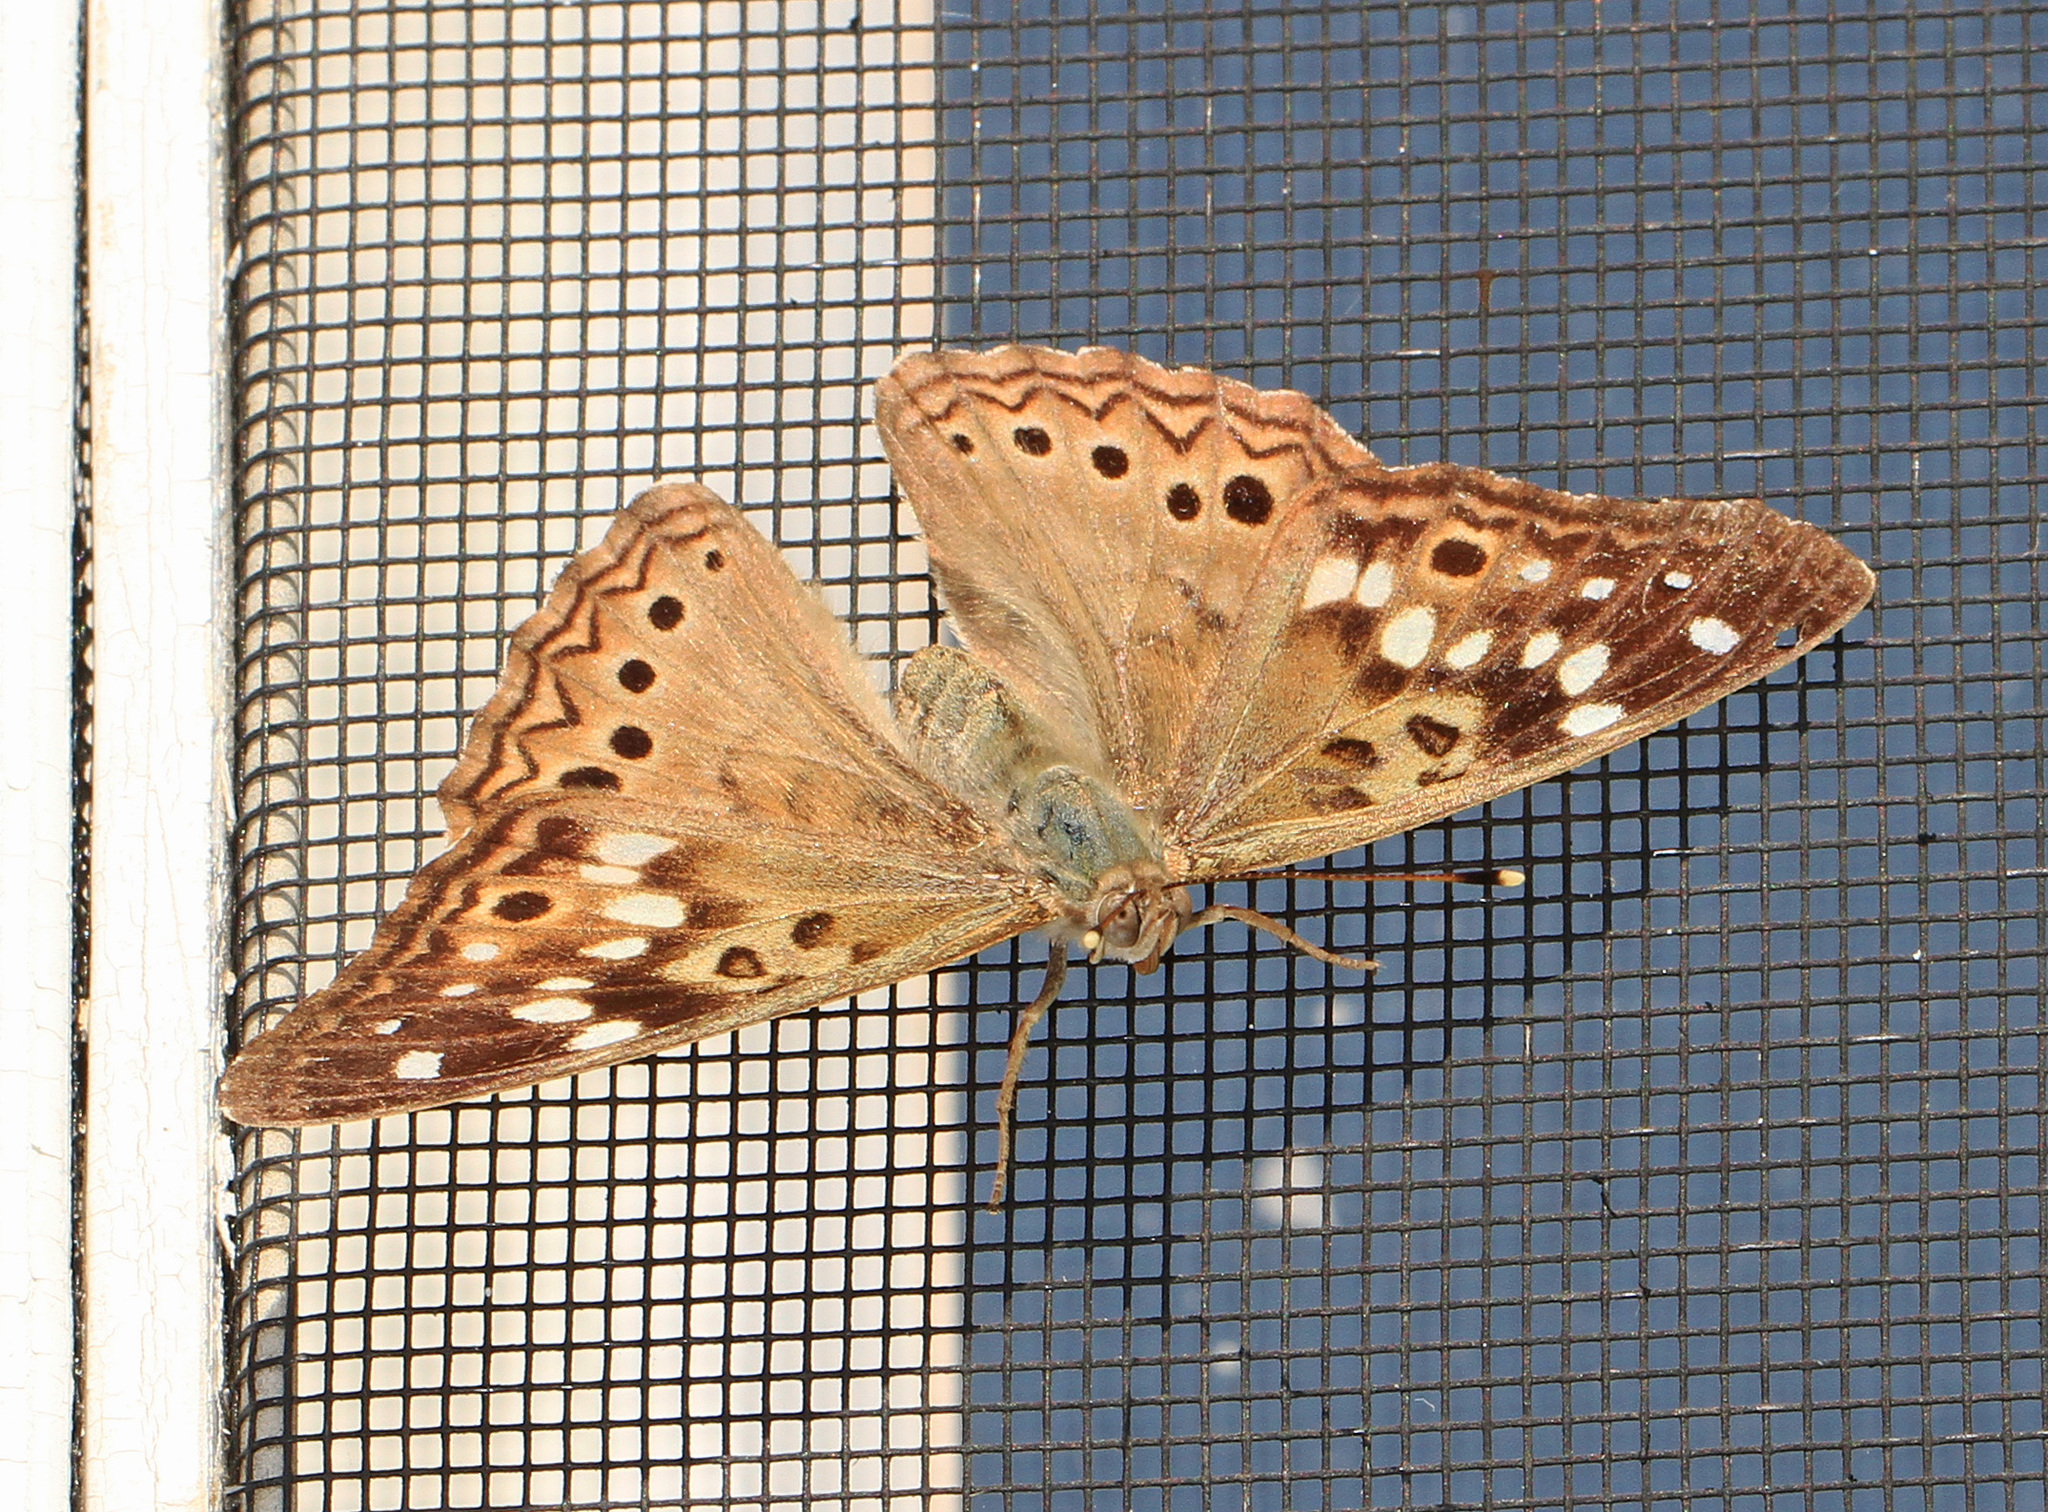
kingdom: Animalia
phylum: Arthropoda
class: Insecta
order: Lepidoptera
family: Nymphalidae
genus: Asterocampa
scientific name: Asterocampa celtis
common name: Hackberry emperor
